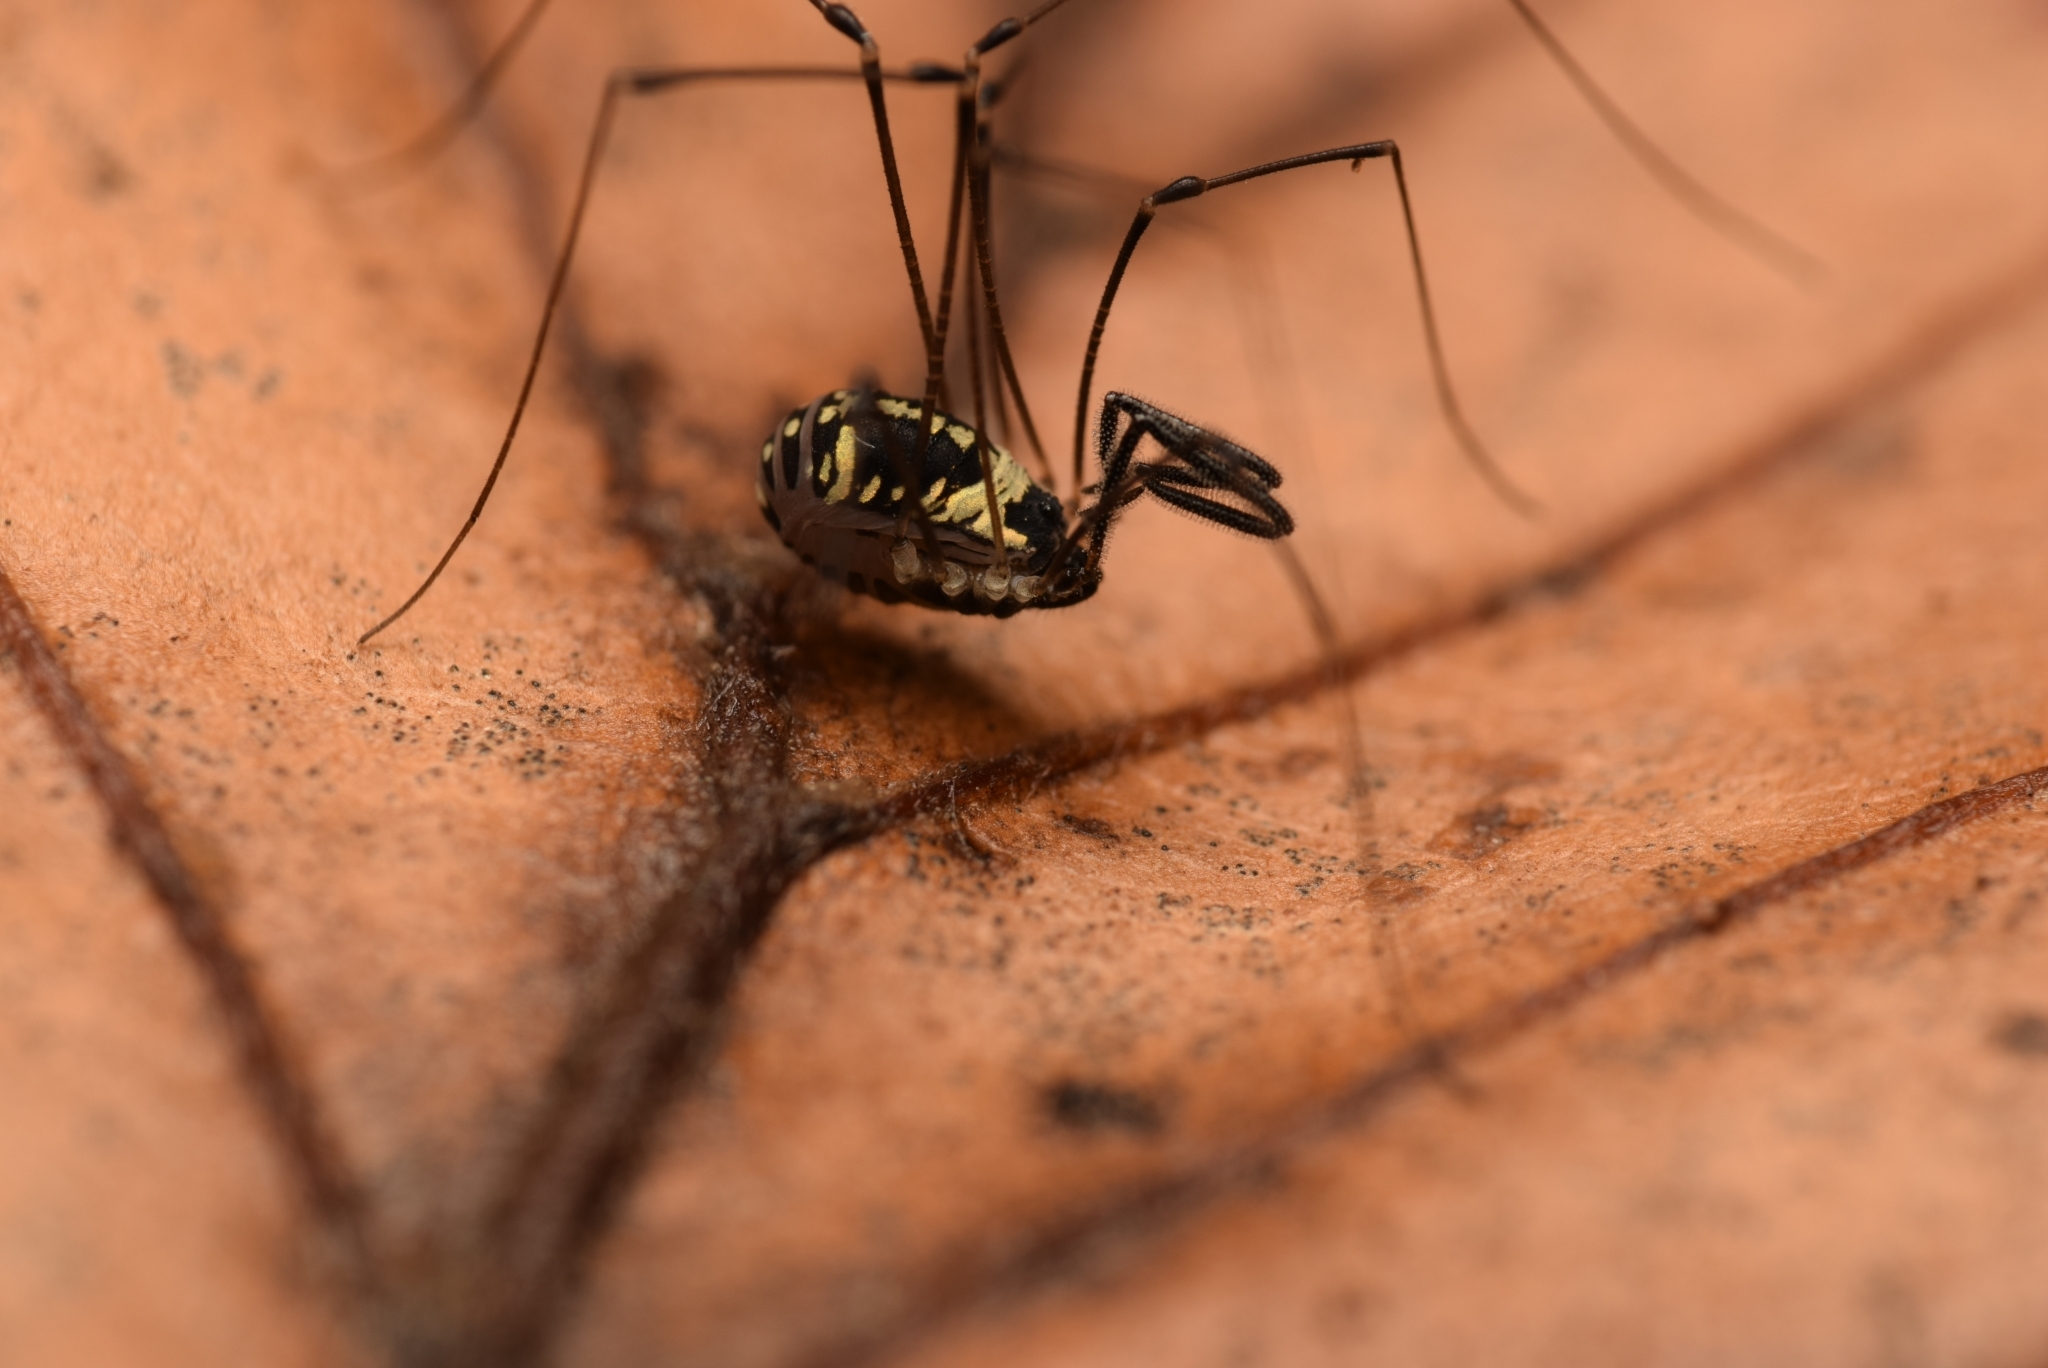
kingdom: Animalia
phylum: Arthropoda
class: Arachnida
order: Opiliones
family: Nemastomatidae
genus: Mitostoma
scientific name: Mitostoma pyrenaeum
